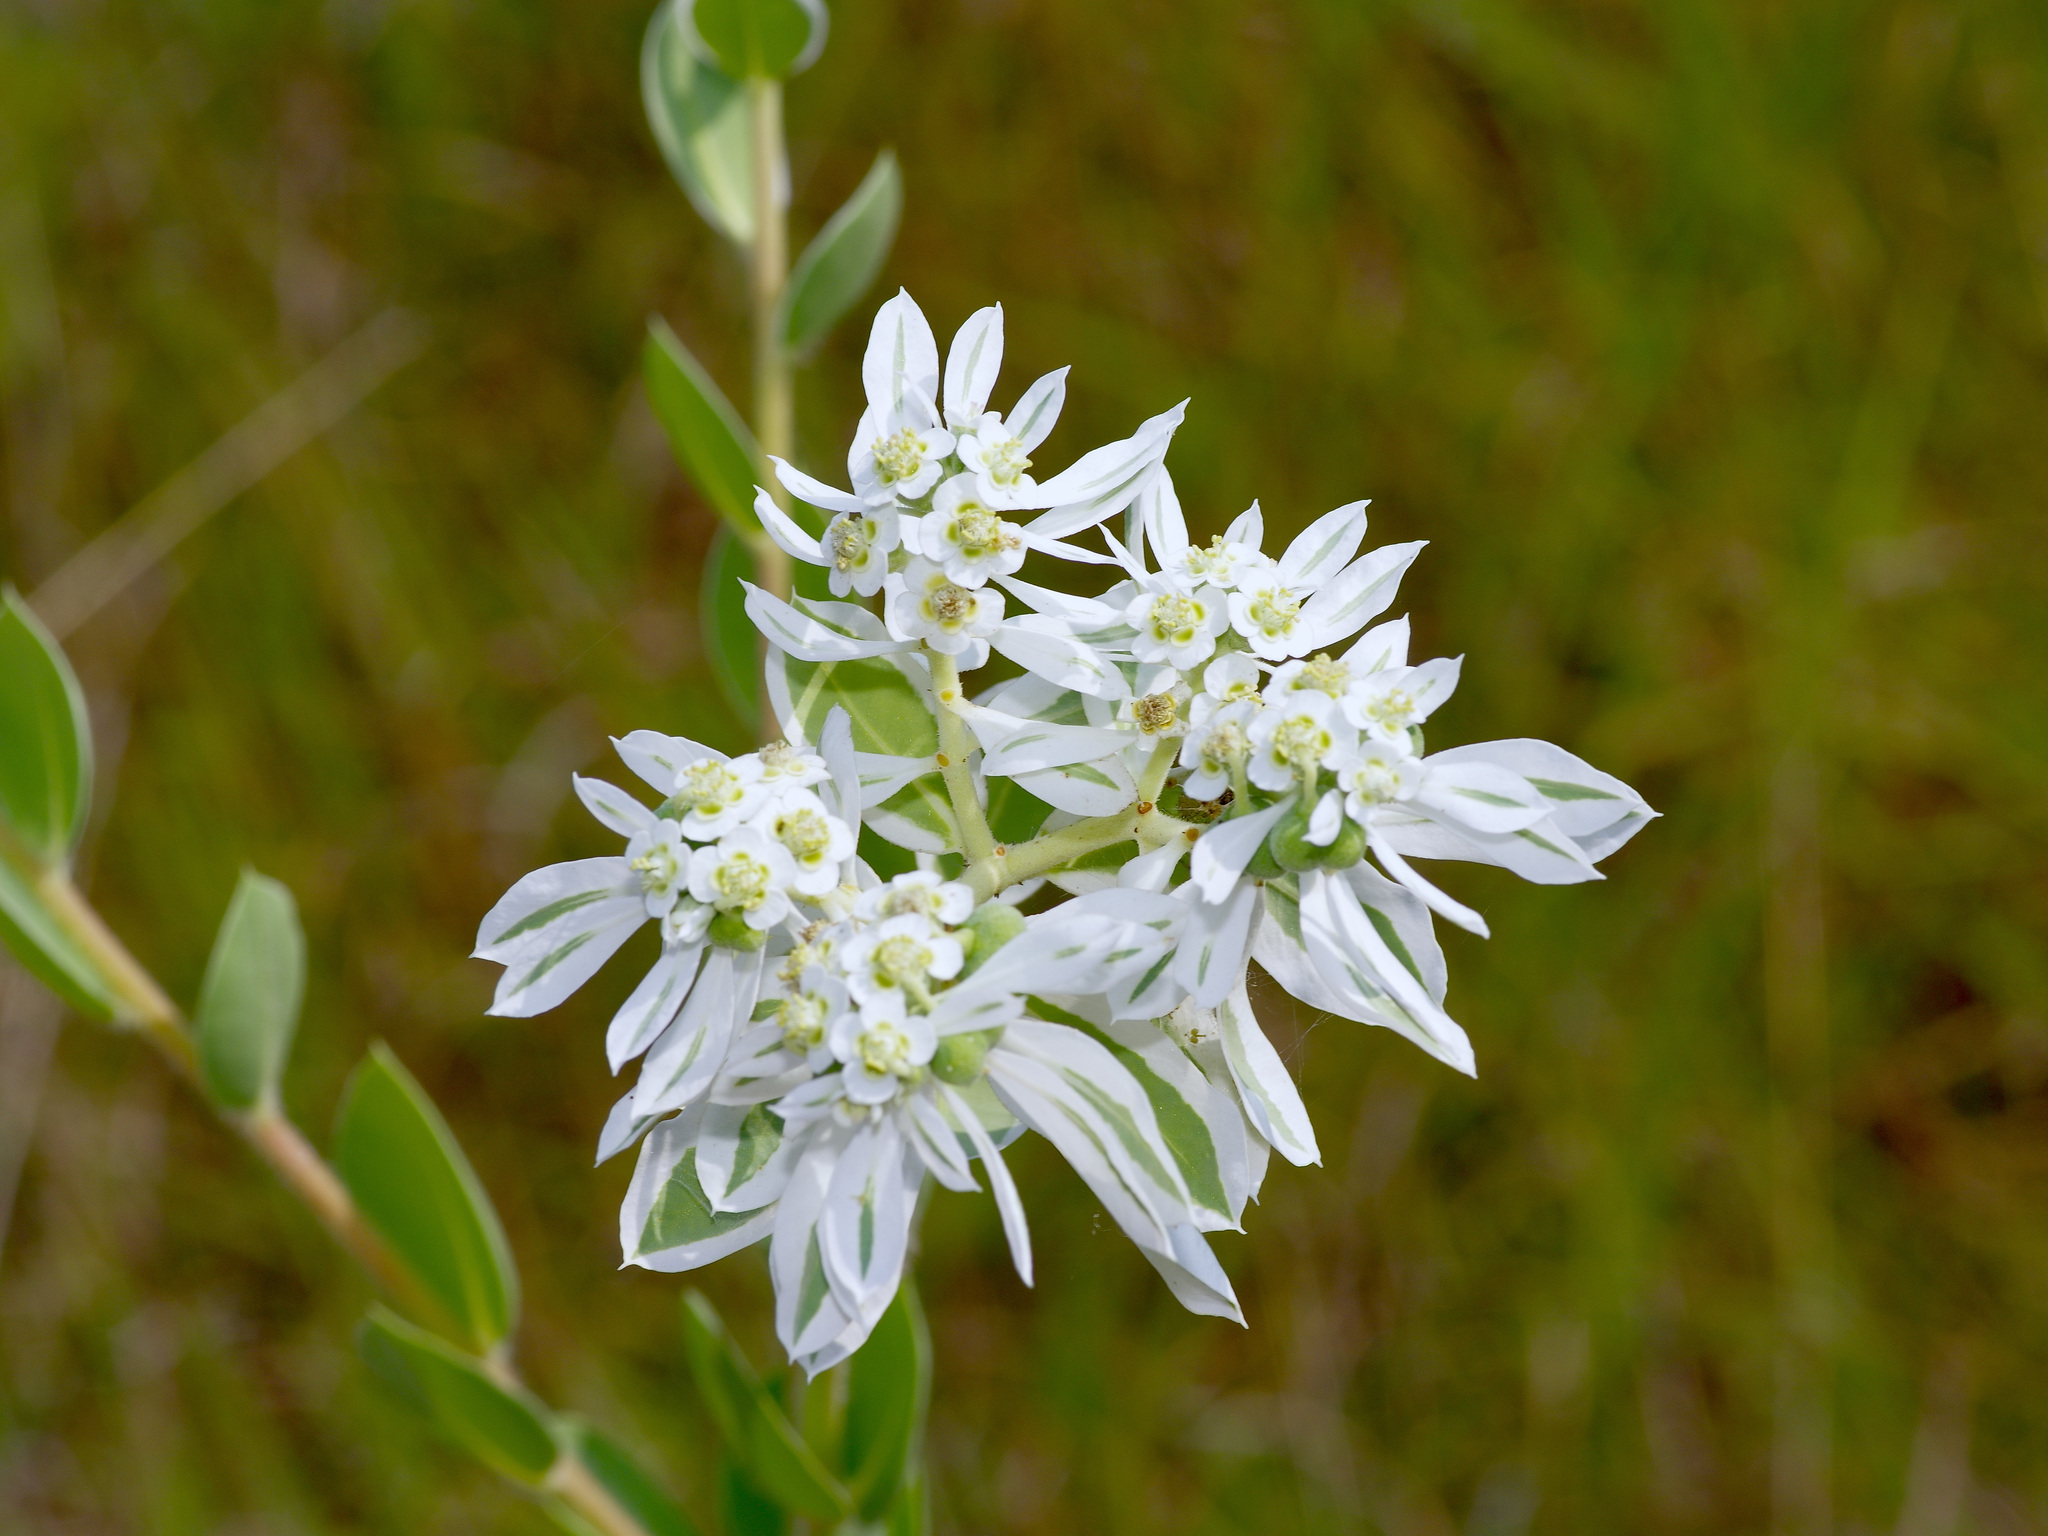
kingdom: Plantae
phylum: Tracheophyta
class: Magnoliopsida
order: Malpighiales
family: Euphorbiaceae
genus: Euphorbia
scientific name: Euphorbia marginata
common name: Ghostweed
